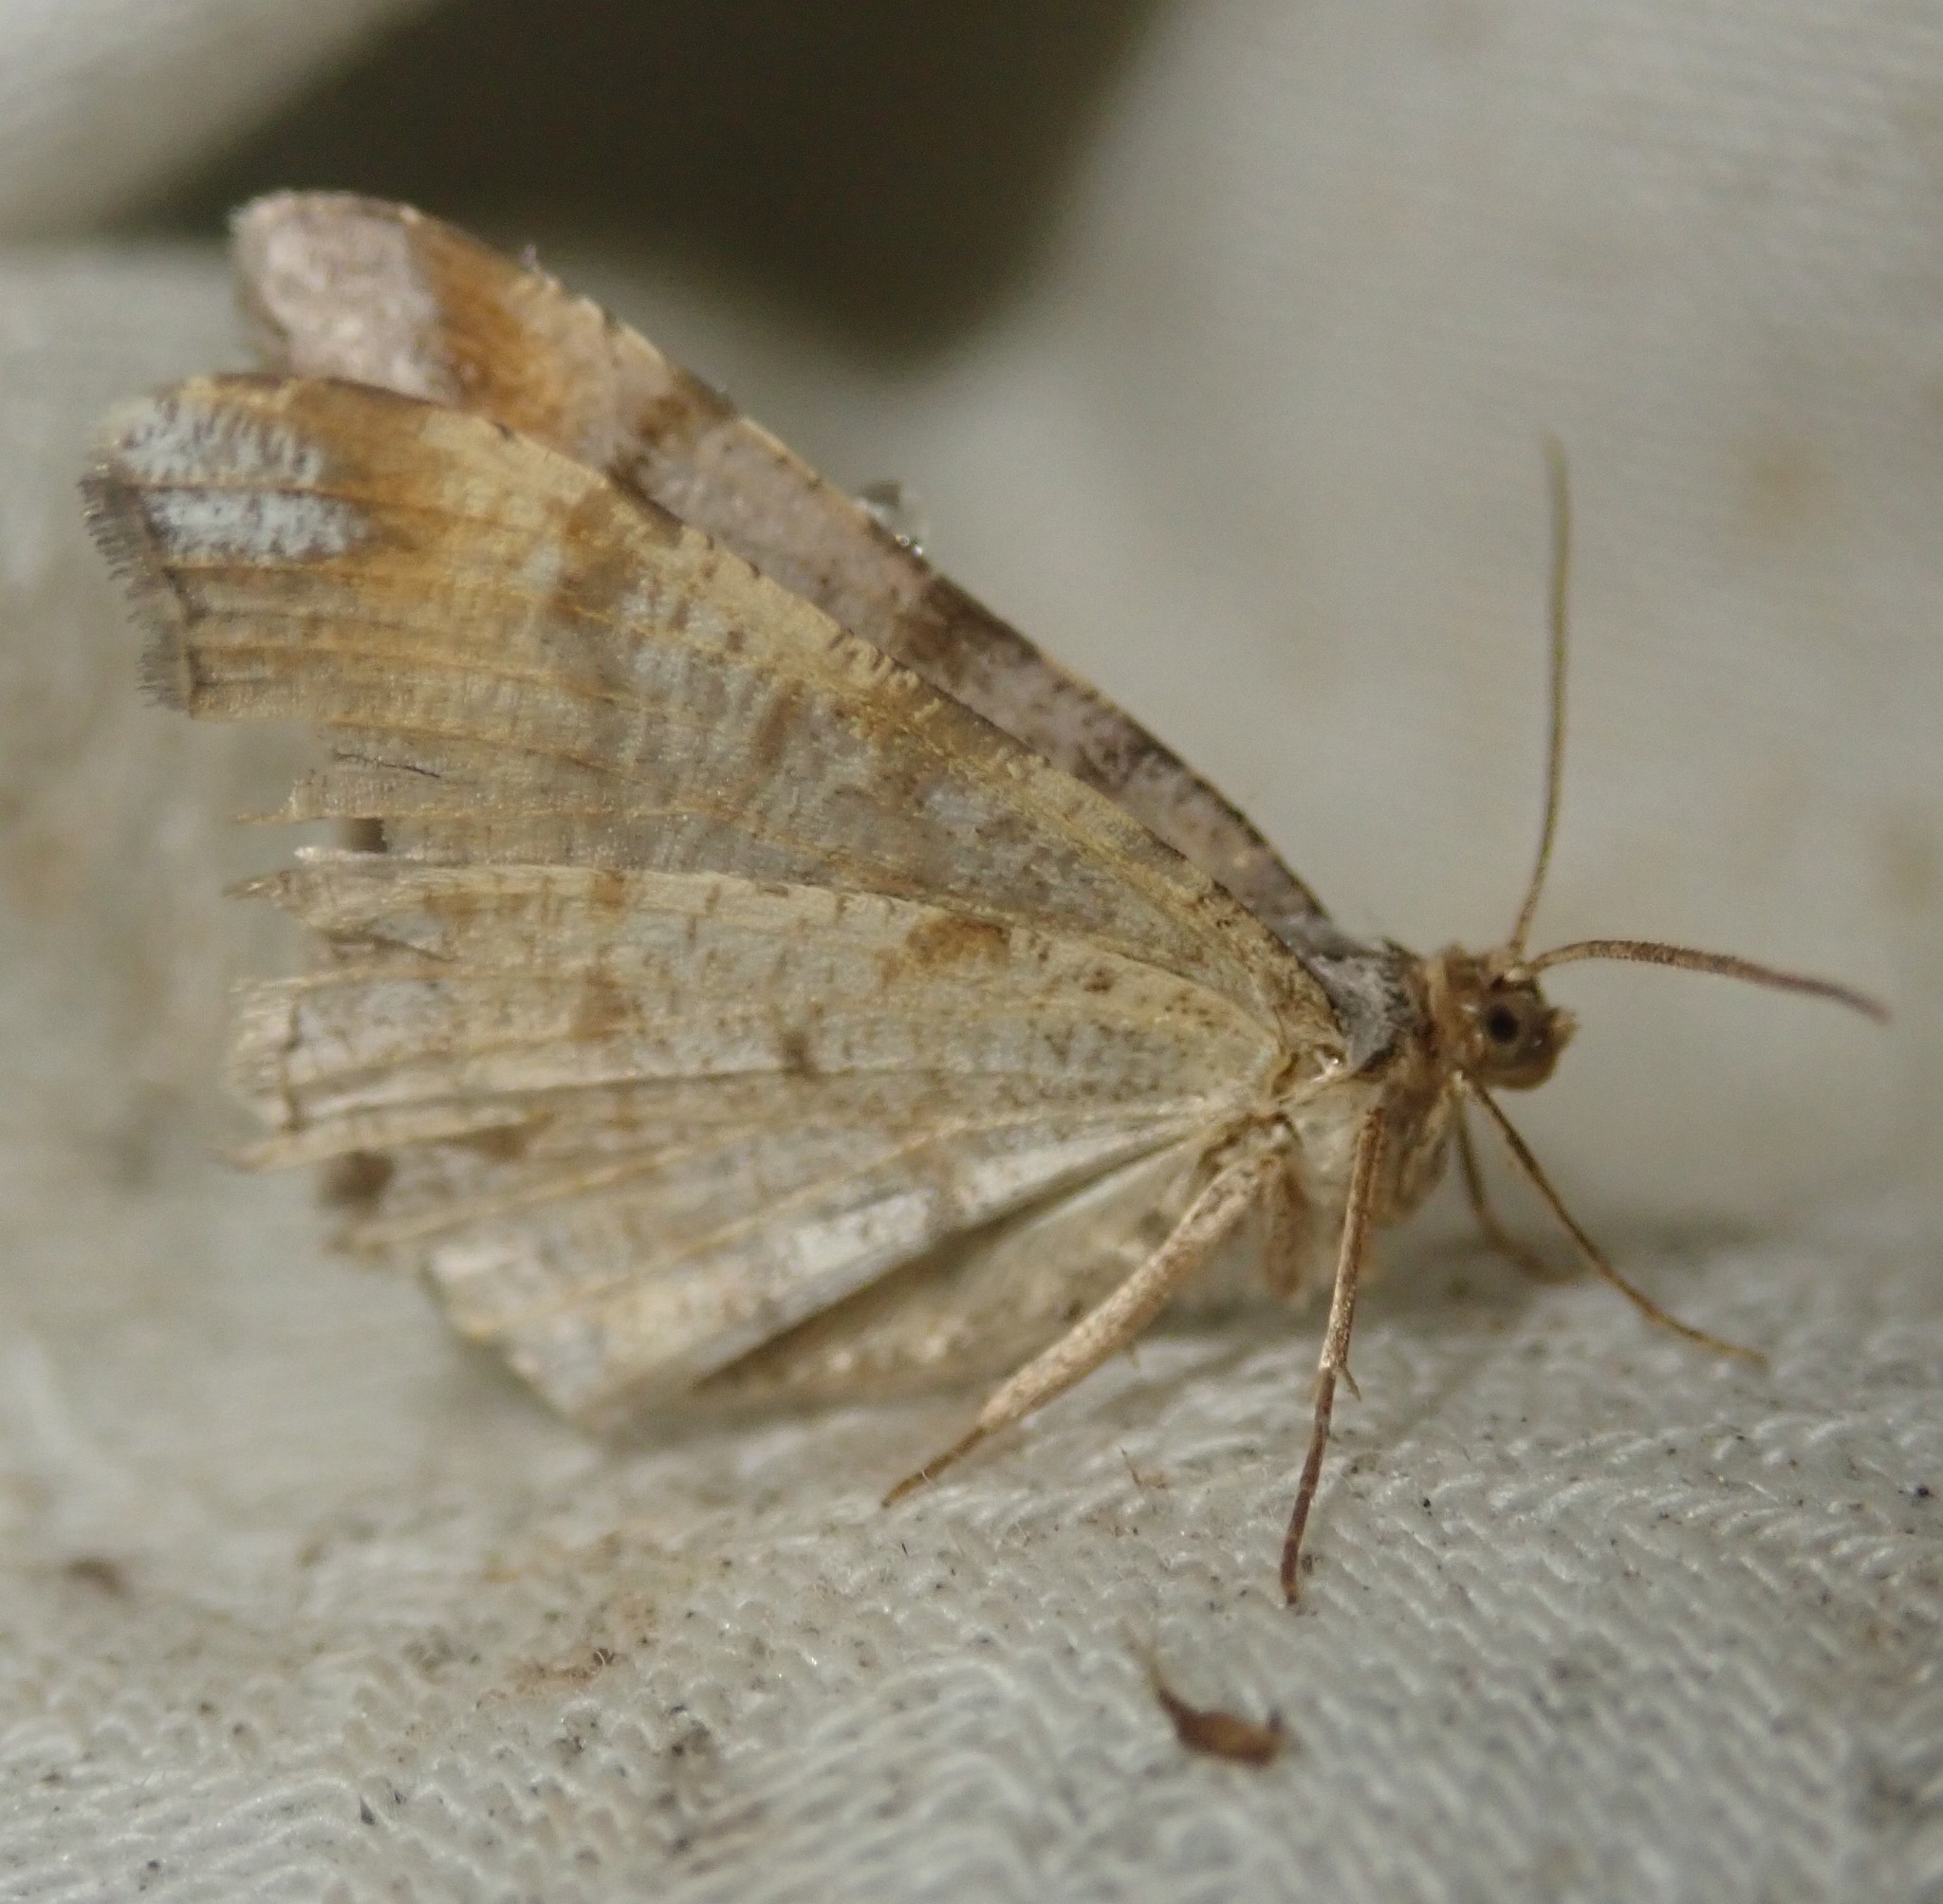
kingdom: Animalia
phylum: Arthropoda
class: Insecta
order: Lepidoptera
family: Geometridae
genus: Macaria
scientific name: Macaria liturata
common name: Tawny-barred angle
